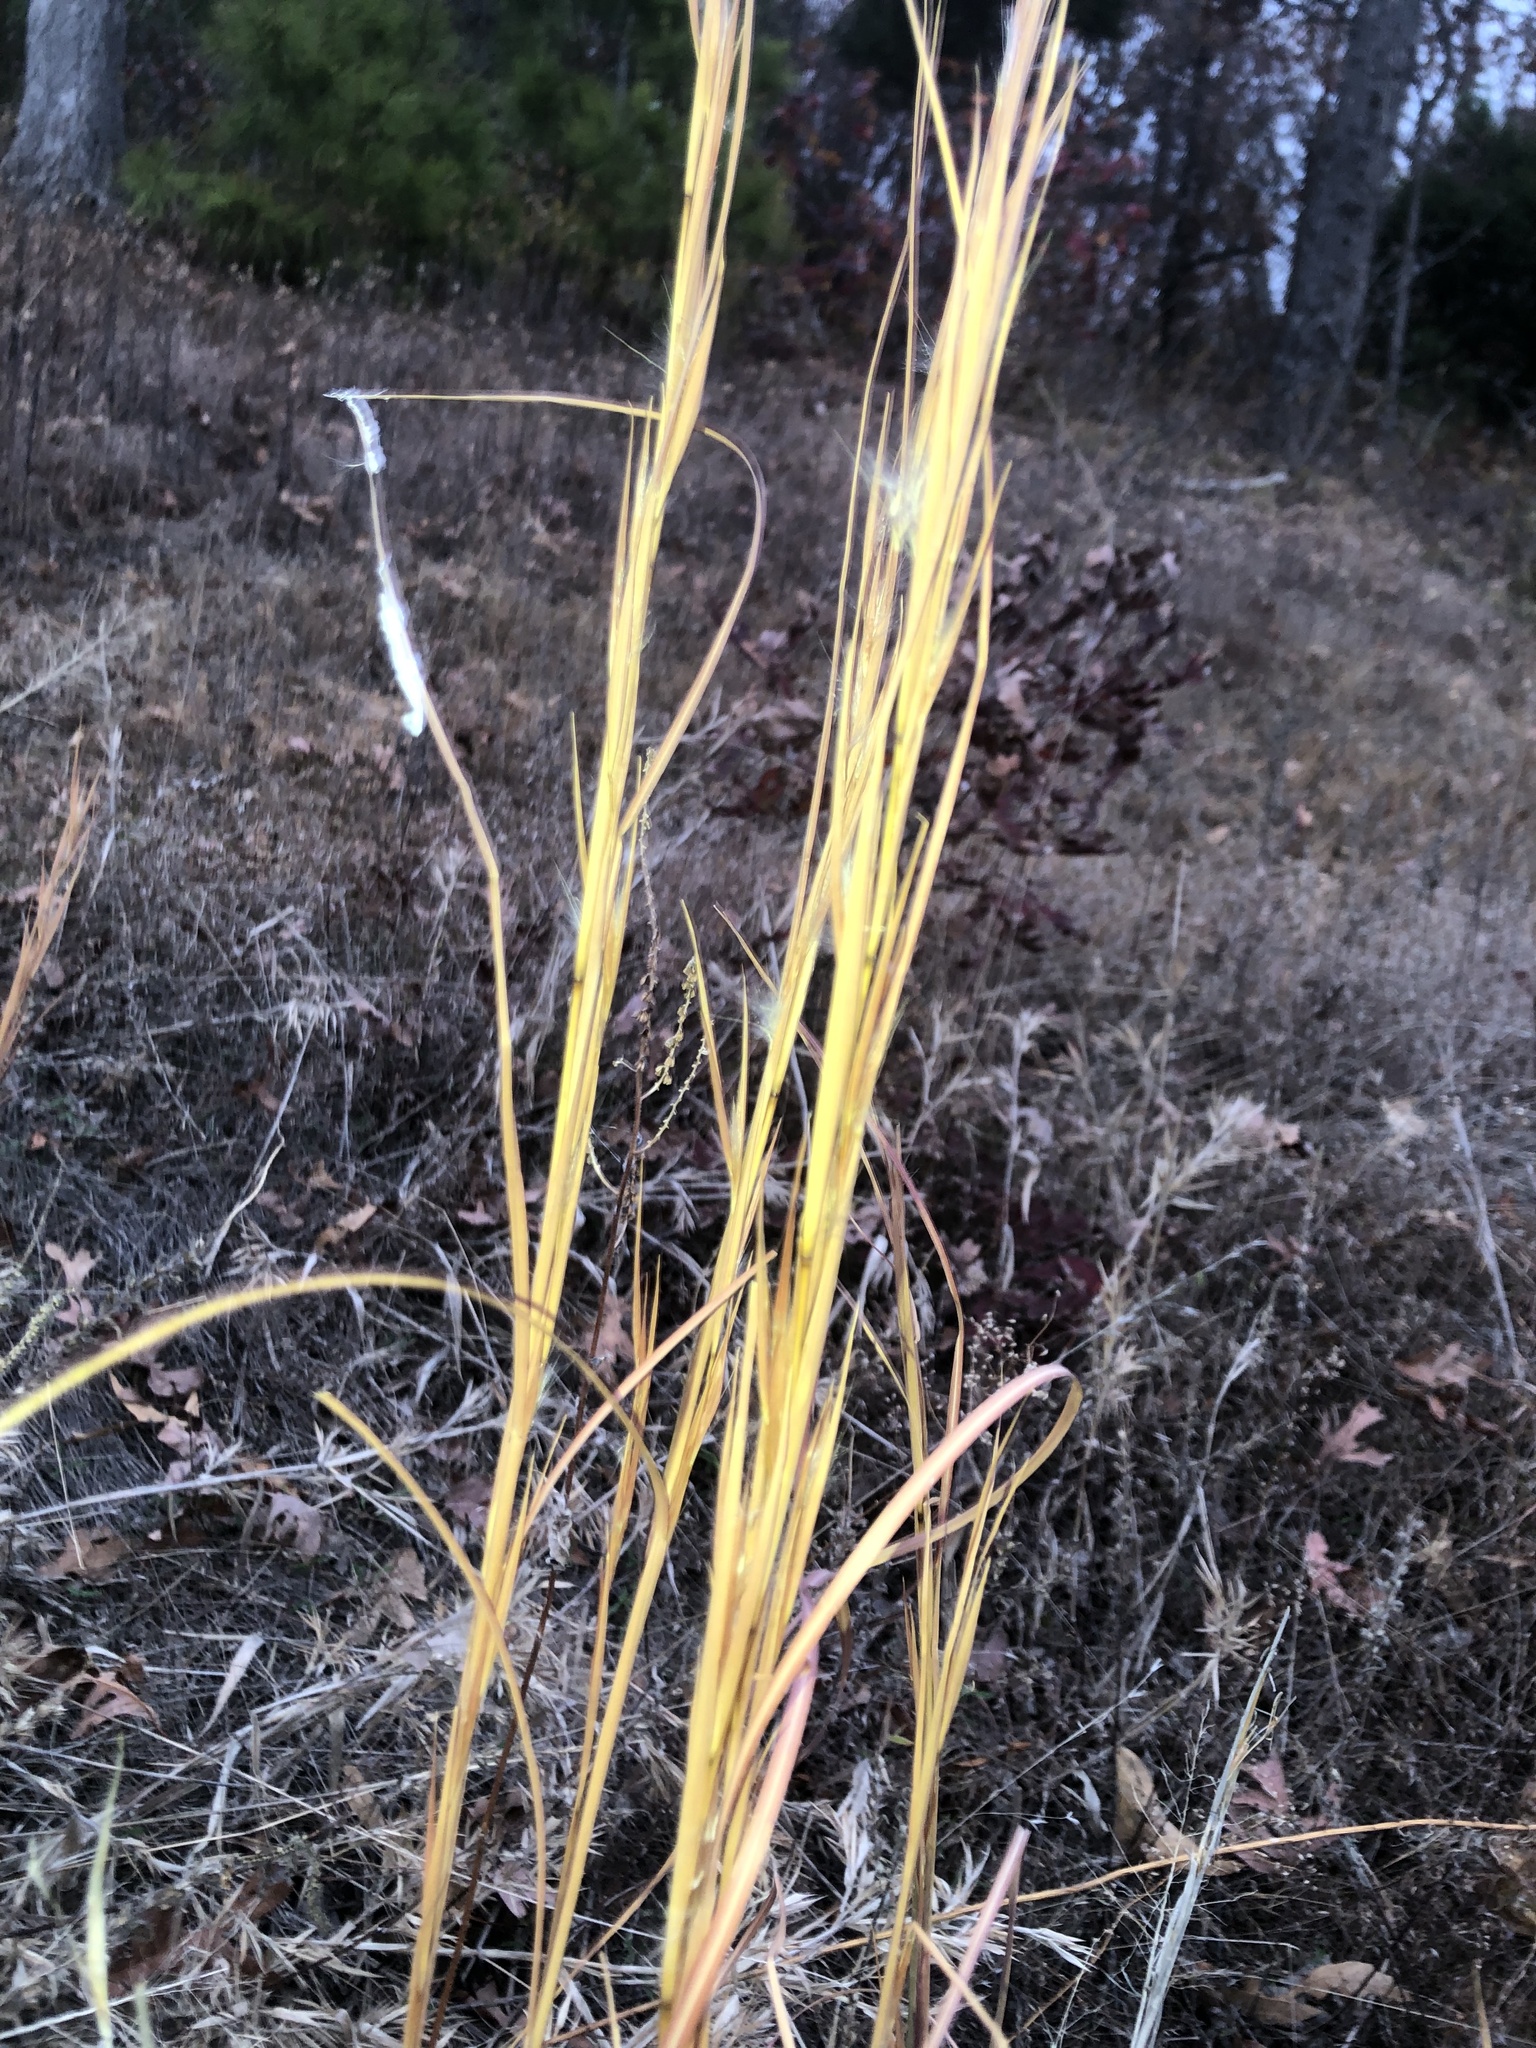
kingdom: Plantae
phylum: Tracheophyta
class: Liliopsida
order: Poales
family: Poaceae
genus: Andropogon
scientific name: Andropogon virginicus
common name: Broomsedge bluestem
